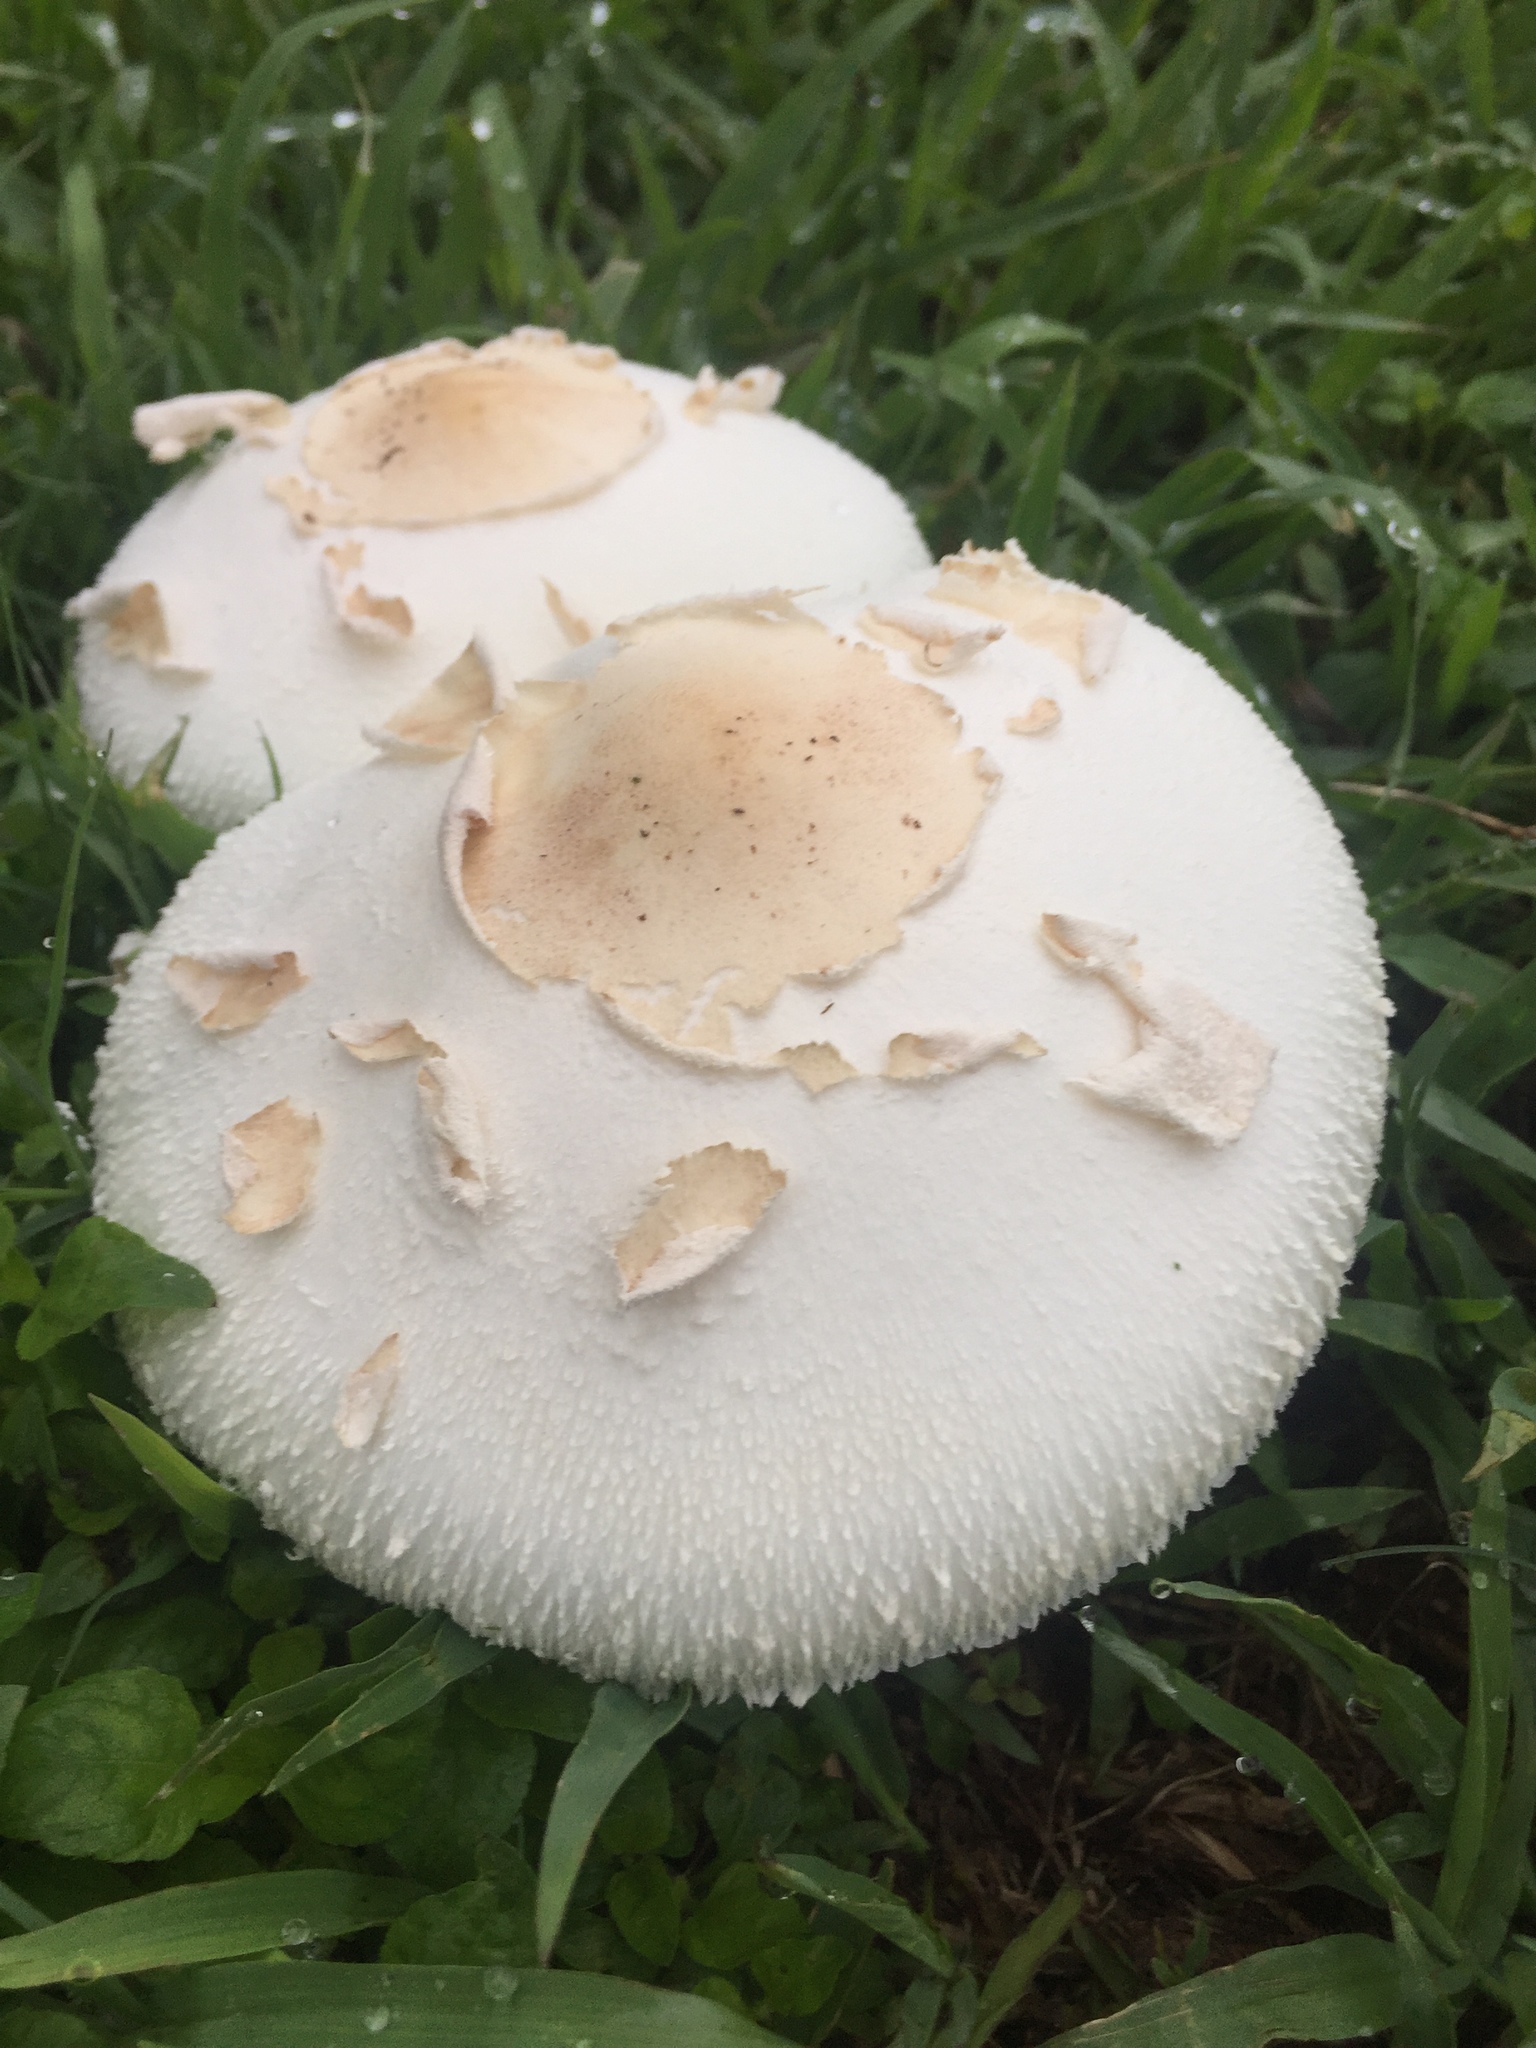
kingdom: Fungi
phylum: Basidiomycota
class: Agaricomycetes
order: Agaricales
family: Agaricaceae
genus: Chlorophyllum
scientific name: Chlorophyllum molybdites
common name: False parasol
